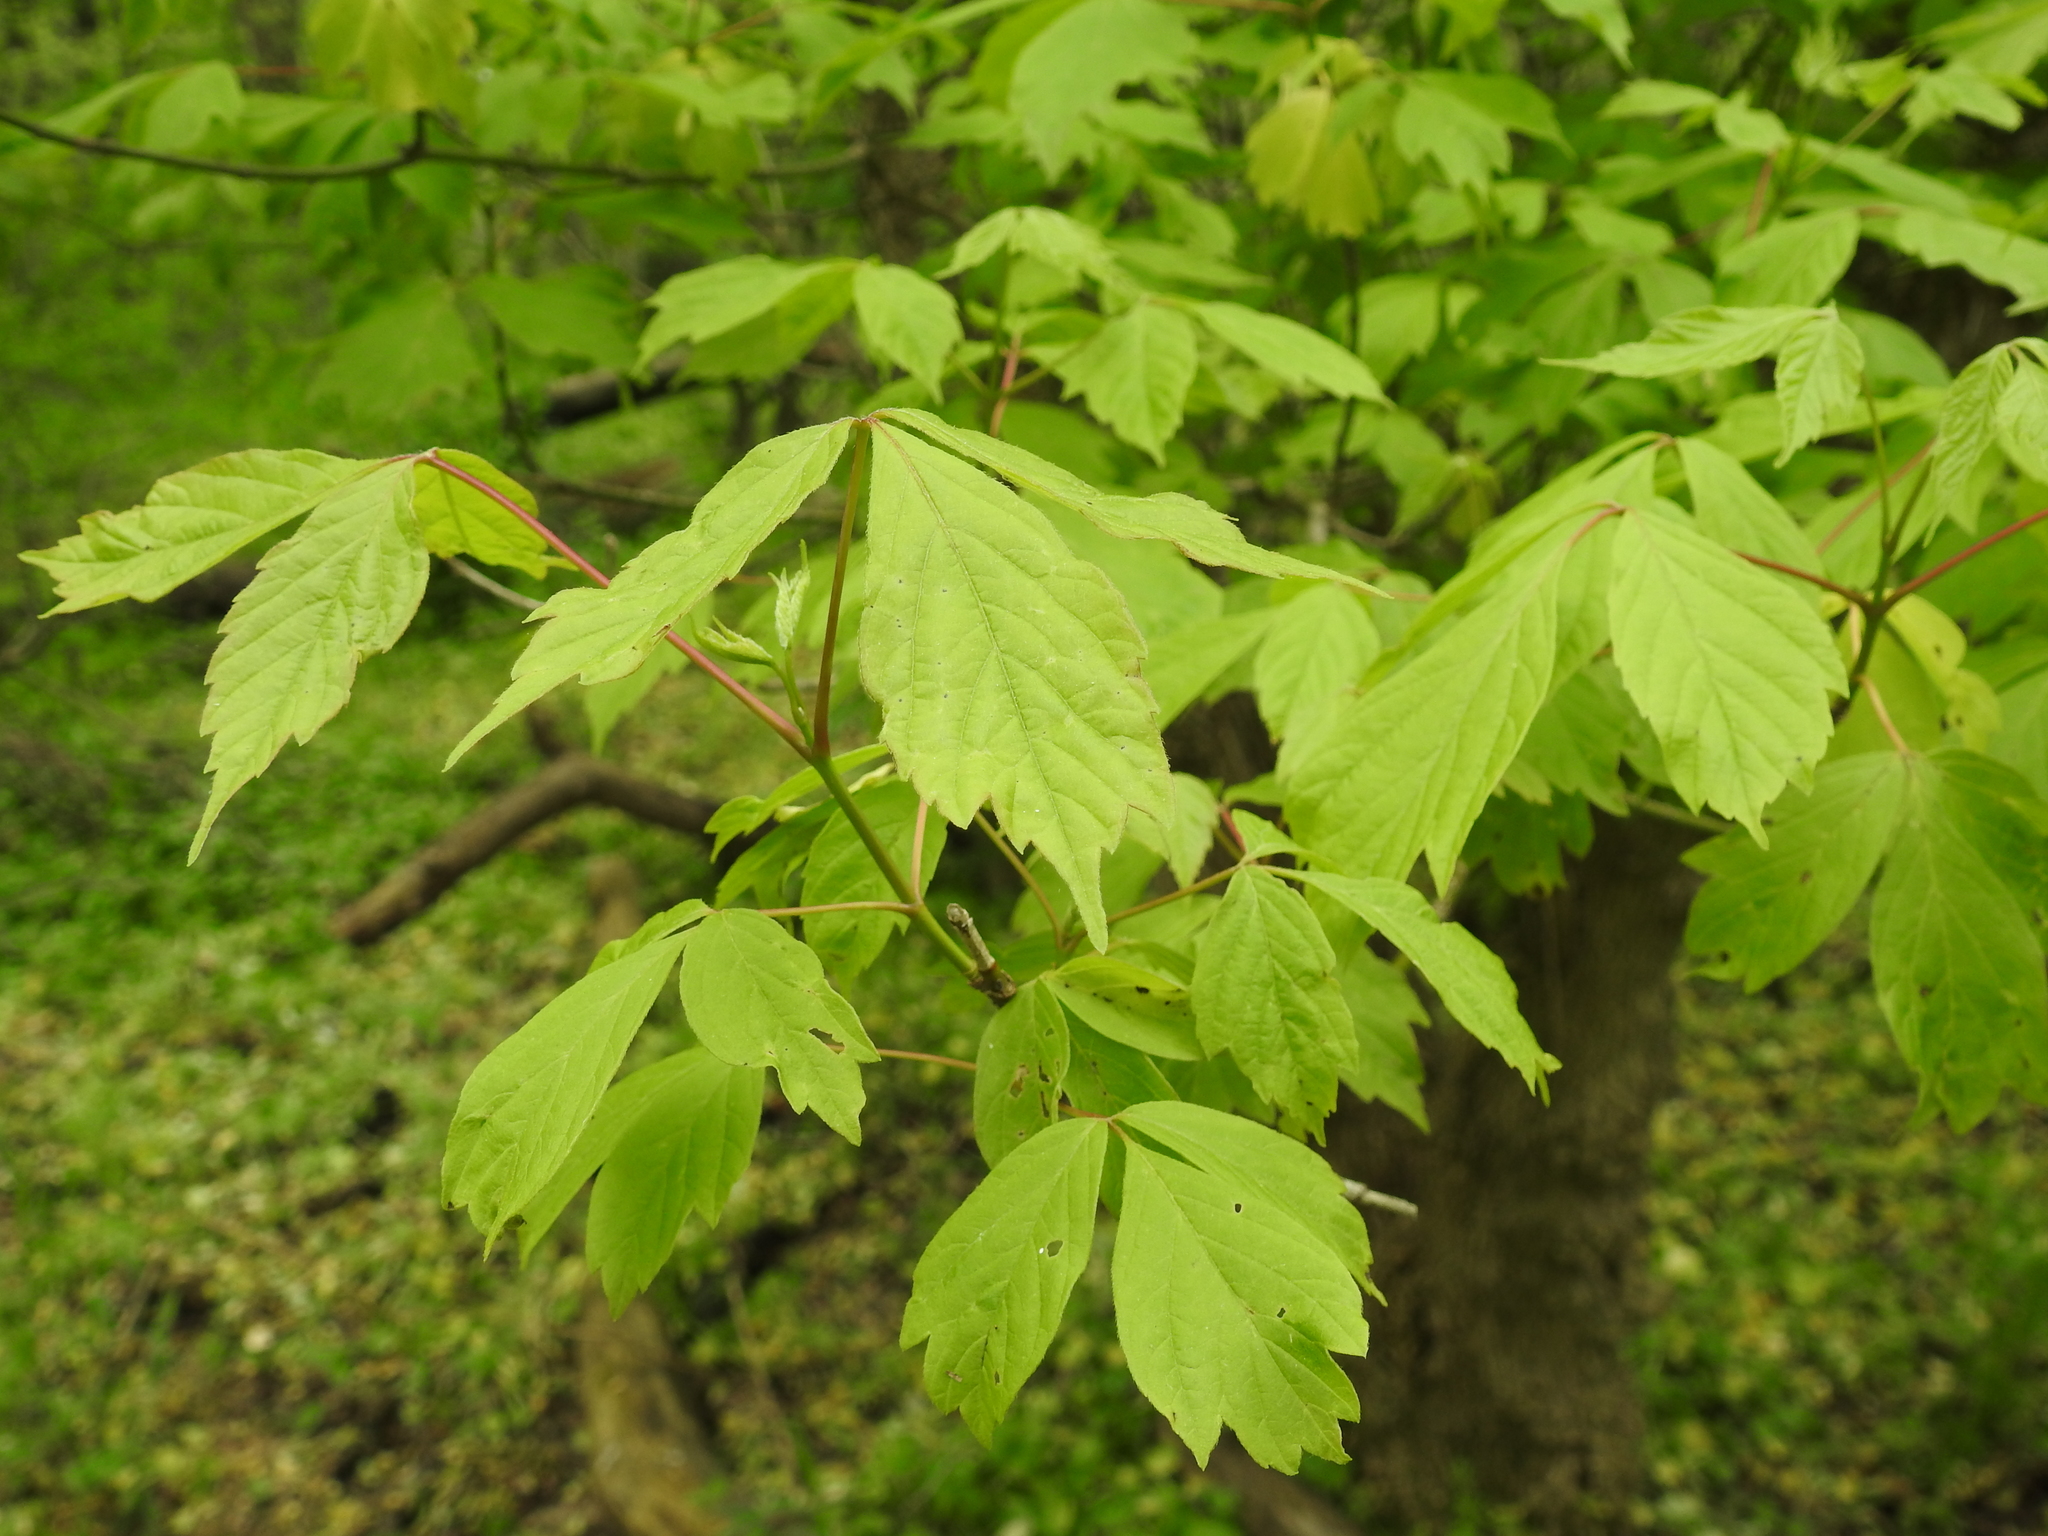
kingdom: Plantae
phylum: Tracheophyta
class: Magnoliopsida
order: Sapindales
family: Sapindaceae
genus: Acer
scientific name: Acer negundo
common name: Ashleaf maple
